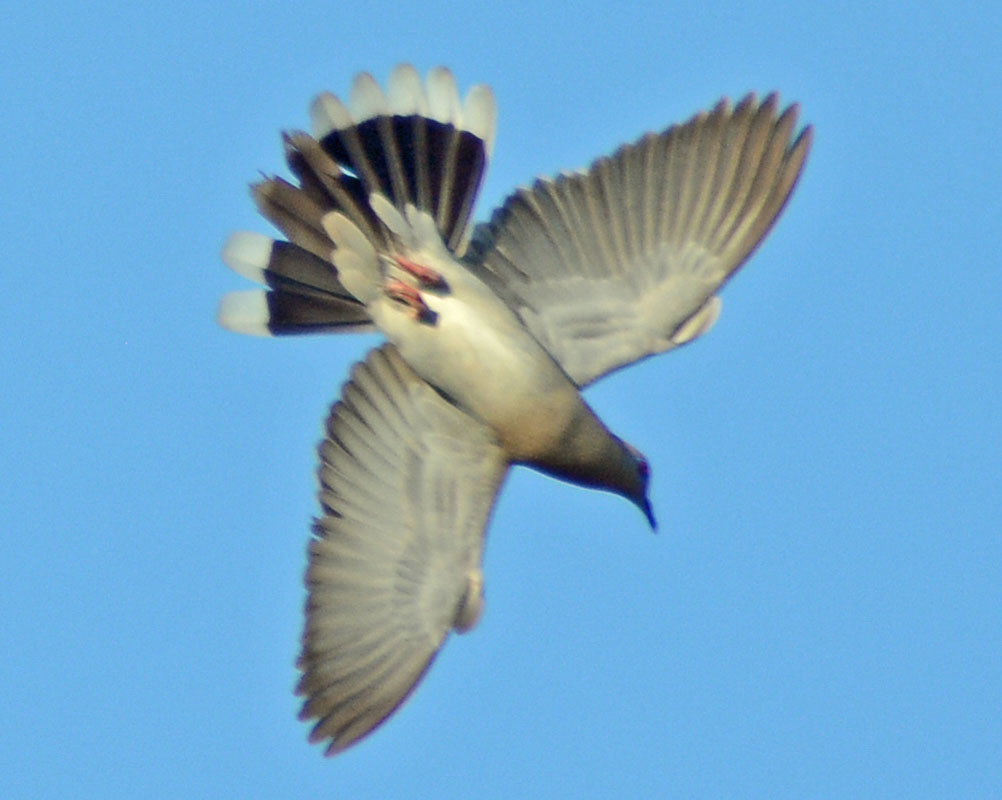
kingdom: Animalia
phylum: Chordata
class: Aves
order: Columbiformes
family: Columbidae
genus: Zenaida
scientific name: Zenaida asiatica
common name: White-winged dove
